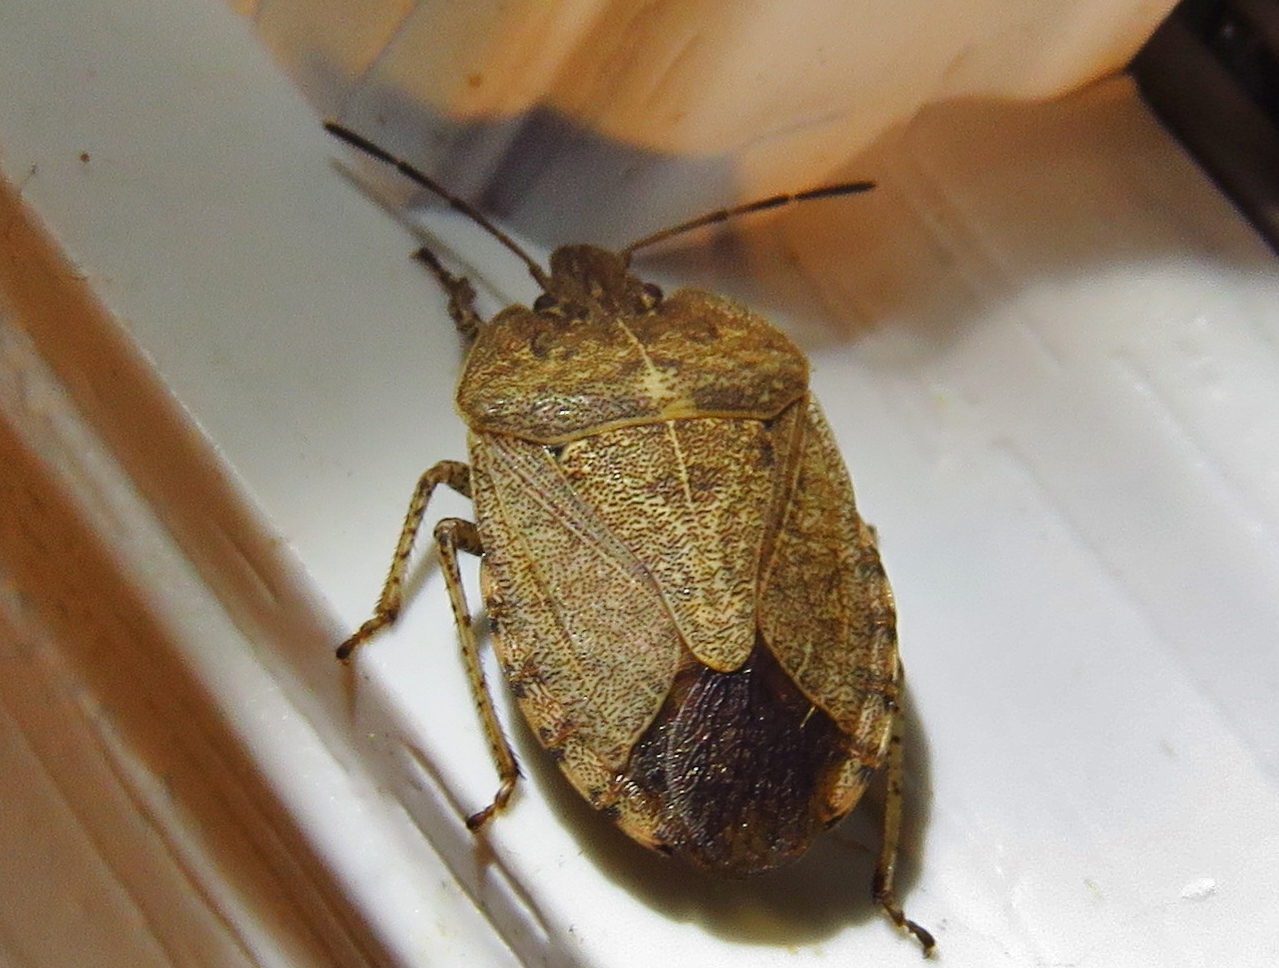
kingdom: Animalia
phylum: Arthropoda
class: Insecta
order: Hemiptera
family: Pentatomidae
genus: Menecles
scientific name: Menecles insertus
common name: Elf shoe stink bug
